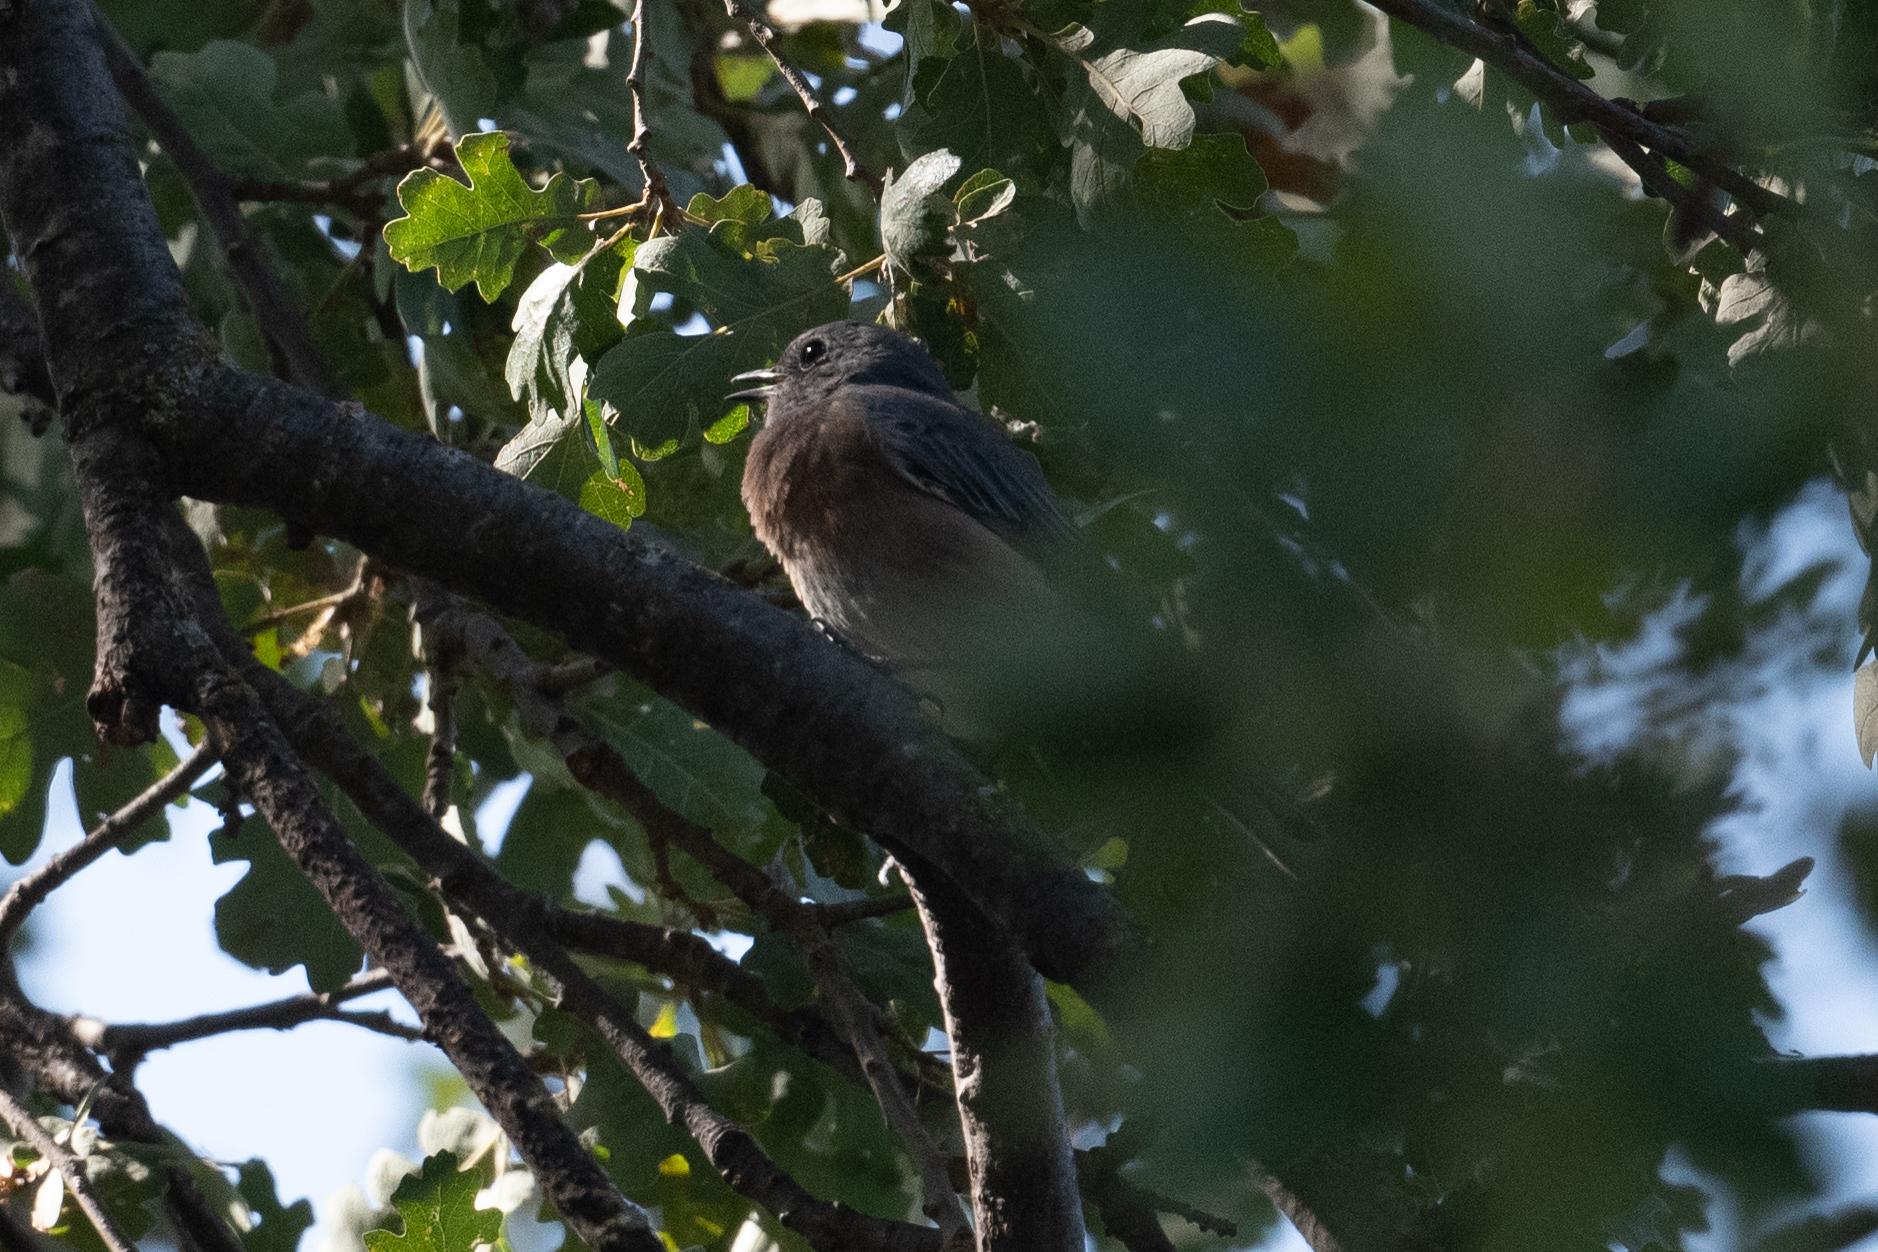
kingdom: Animalia
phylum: Chordata
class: Aves
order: Passeriformes
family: Turdidae
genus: Sialia
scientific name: Sialia mexicana
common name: Western bluebird
